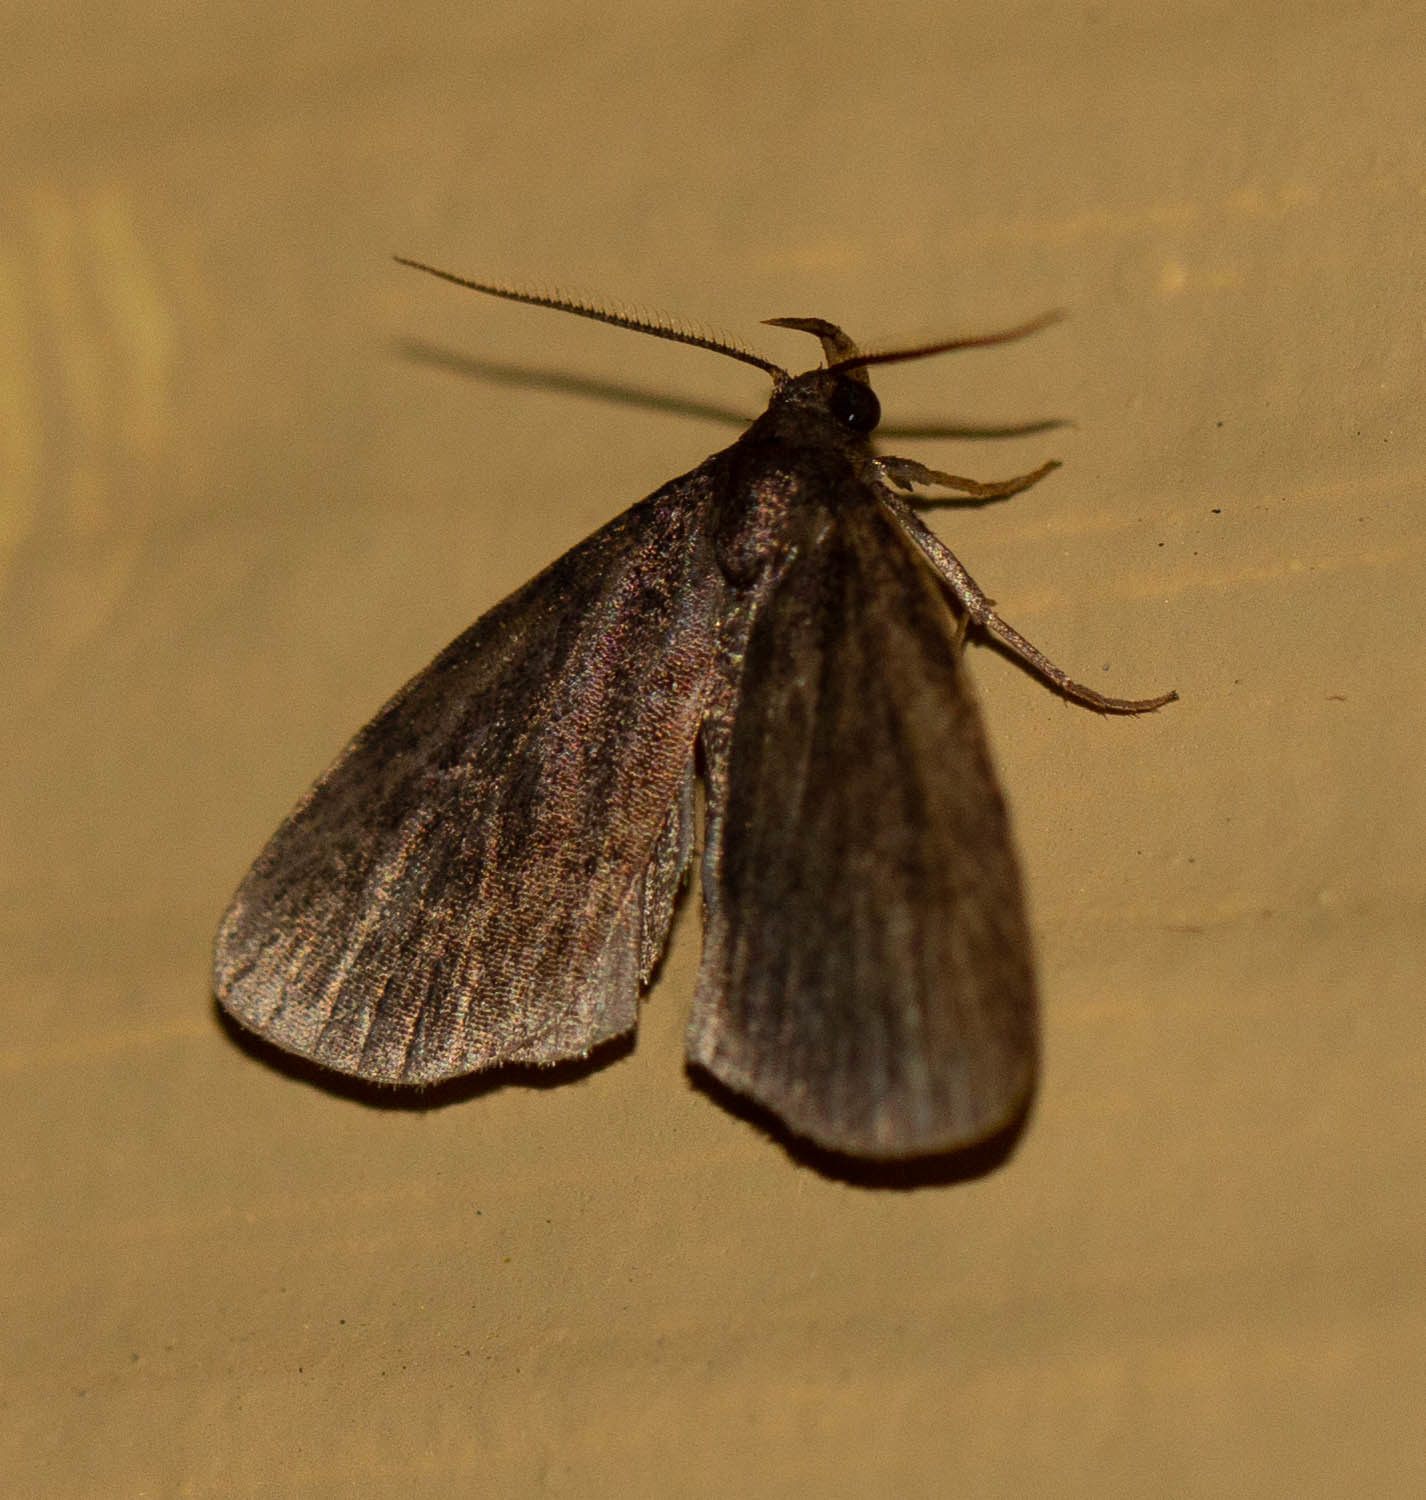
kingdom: Animalia
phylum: Arthropoda
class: Insecta
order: Lepidoptera
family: Erebidae
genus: Idia
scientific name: Idia rotundalis
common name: Rotund idia moth
